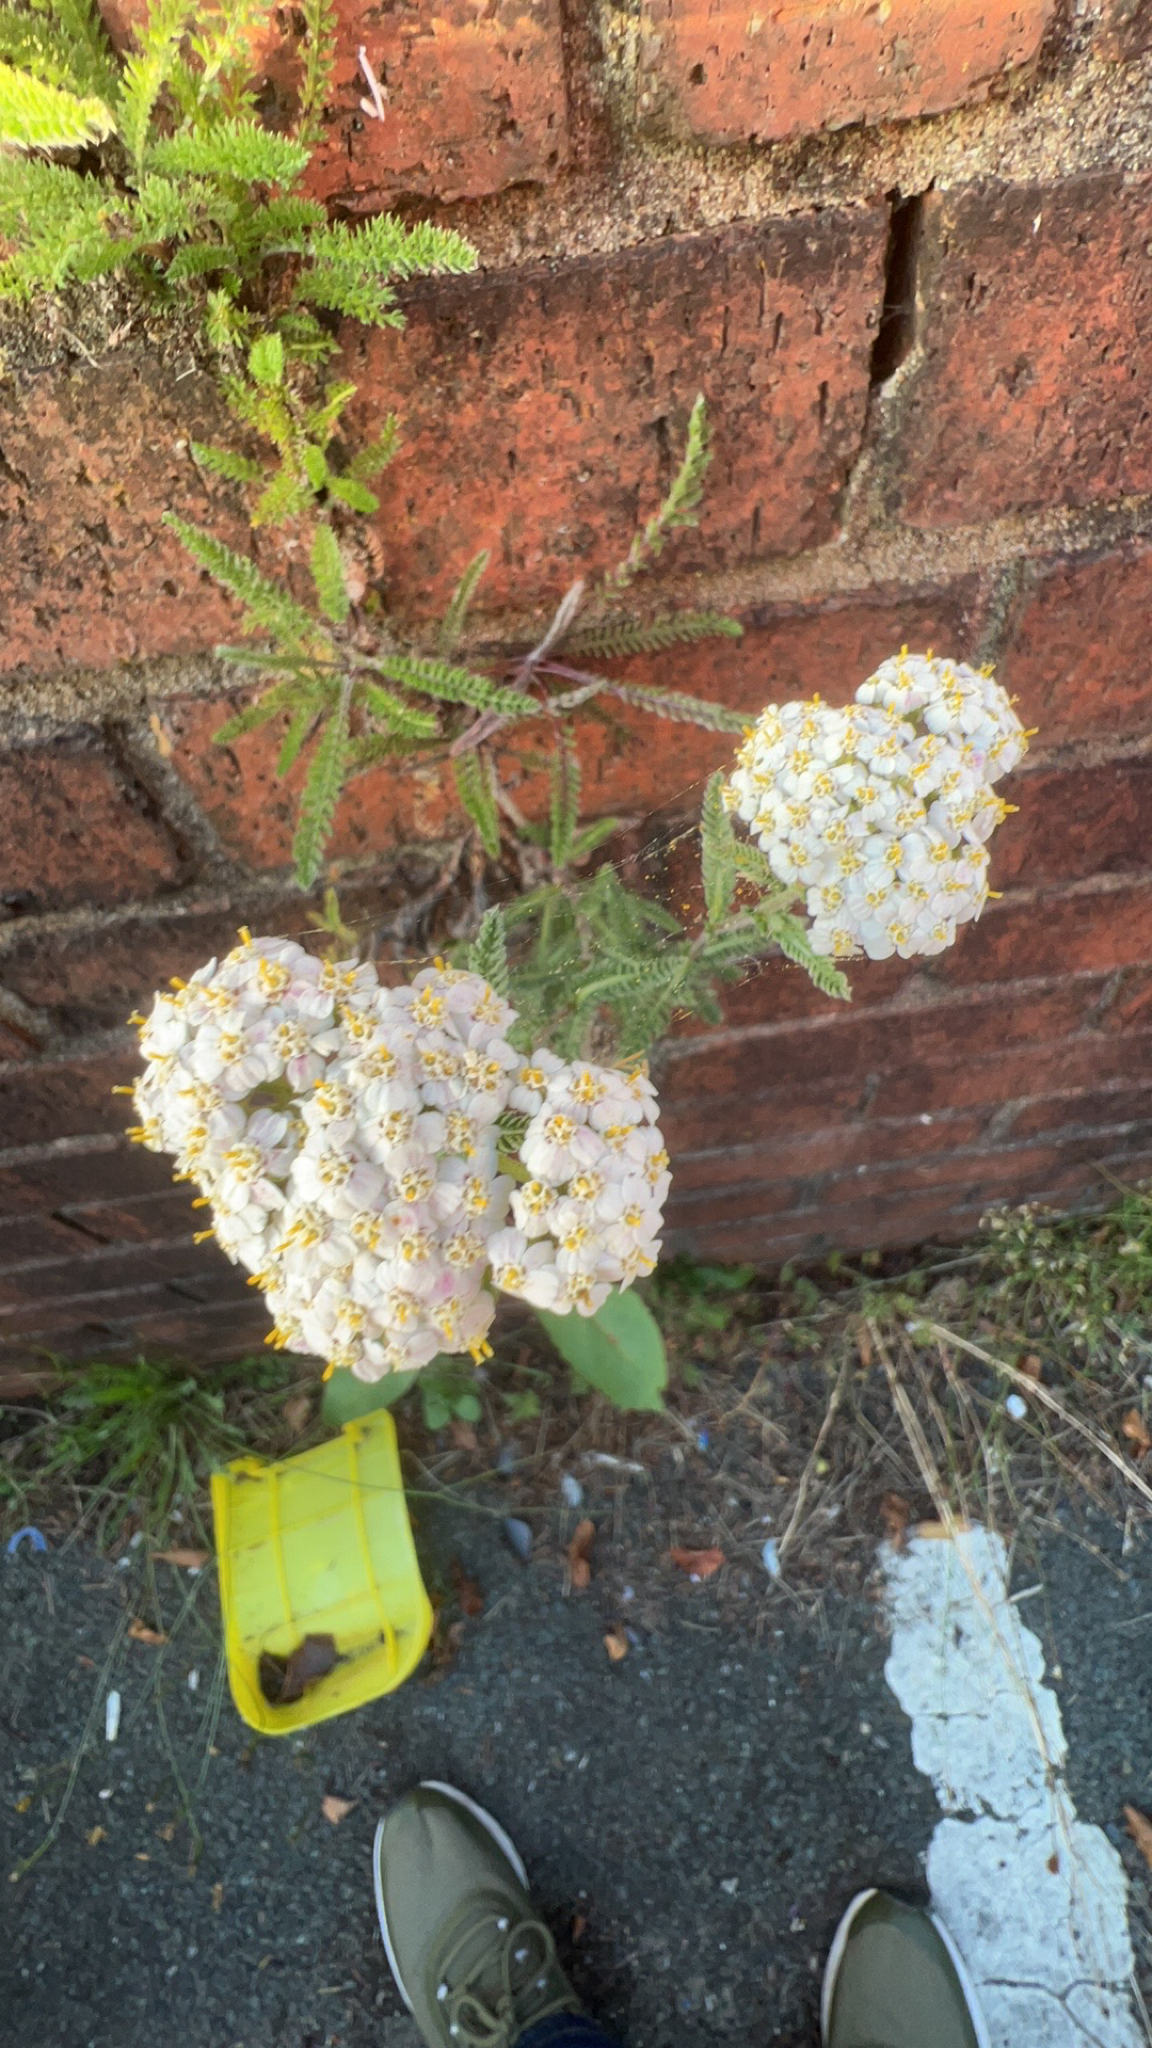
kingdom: Plantae
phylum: Tracheophyta
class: Magnoliopsida
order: Asterales
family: Asteraceae
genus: Achillea
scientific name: Achillea millefolium
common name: Yarrow
